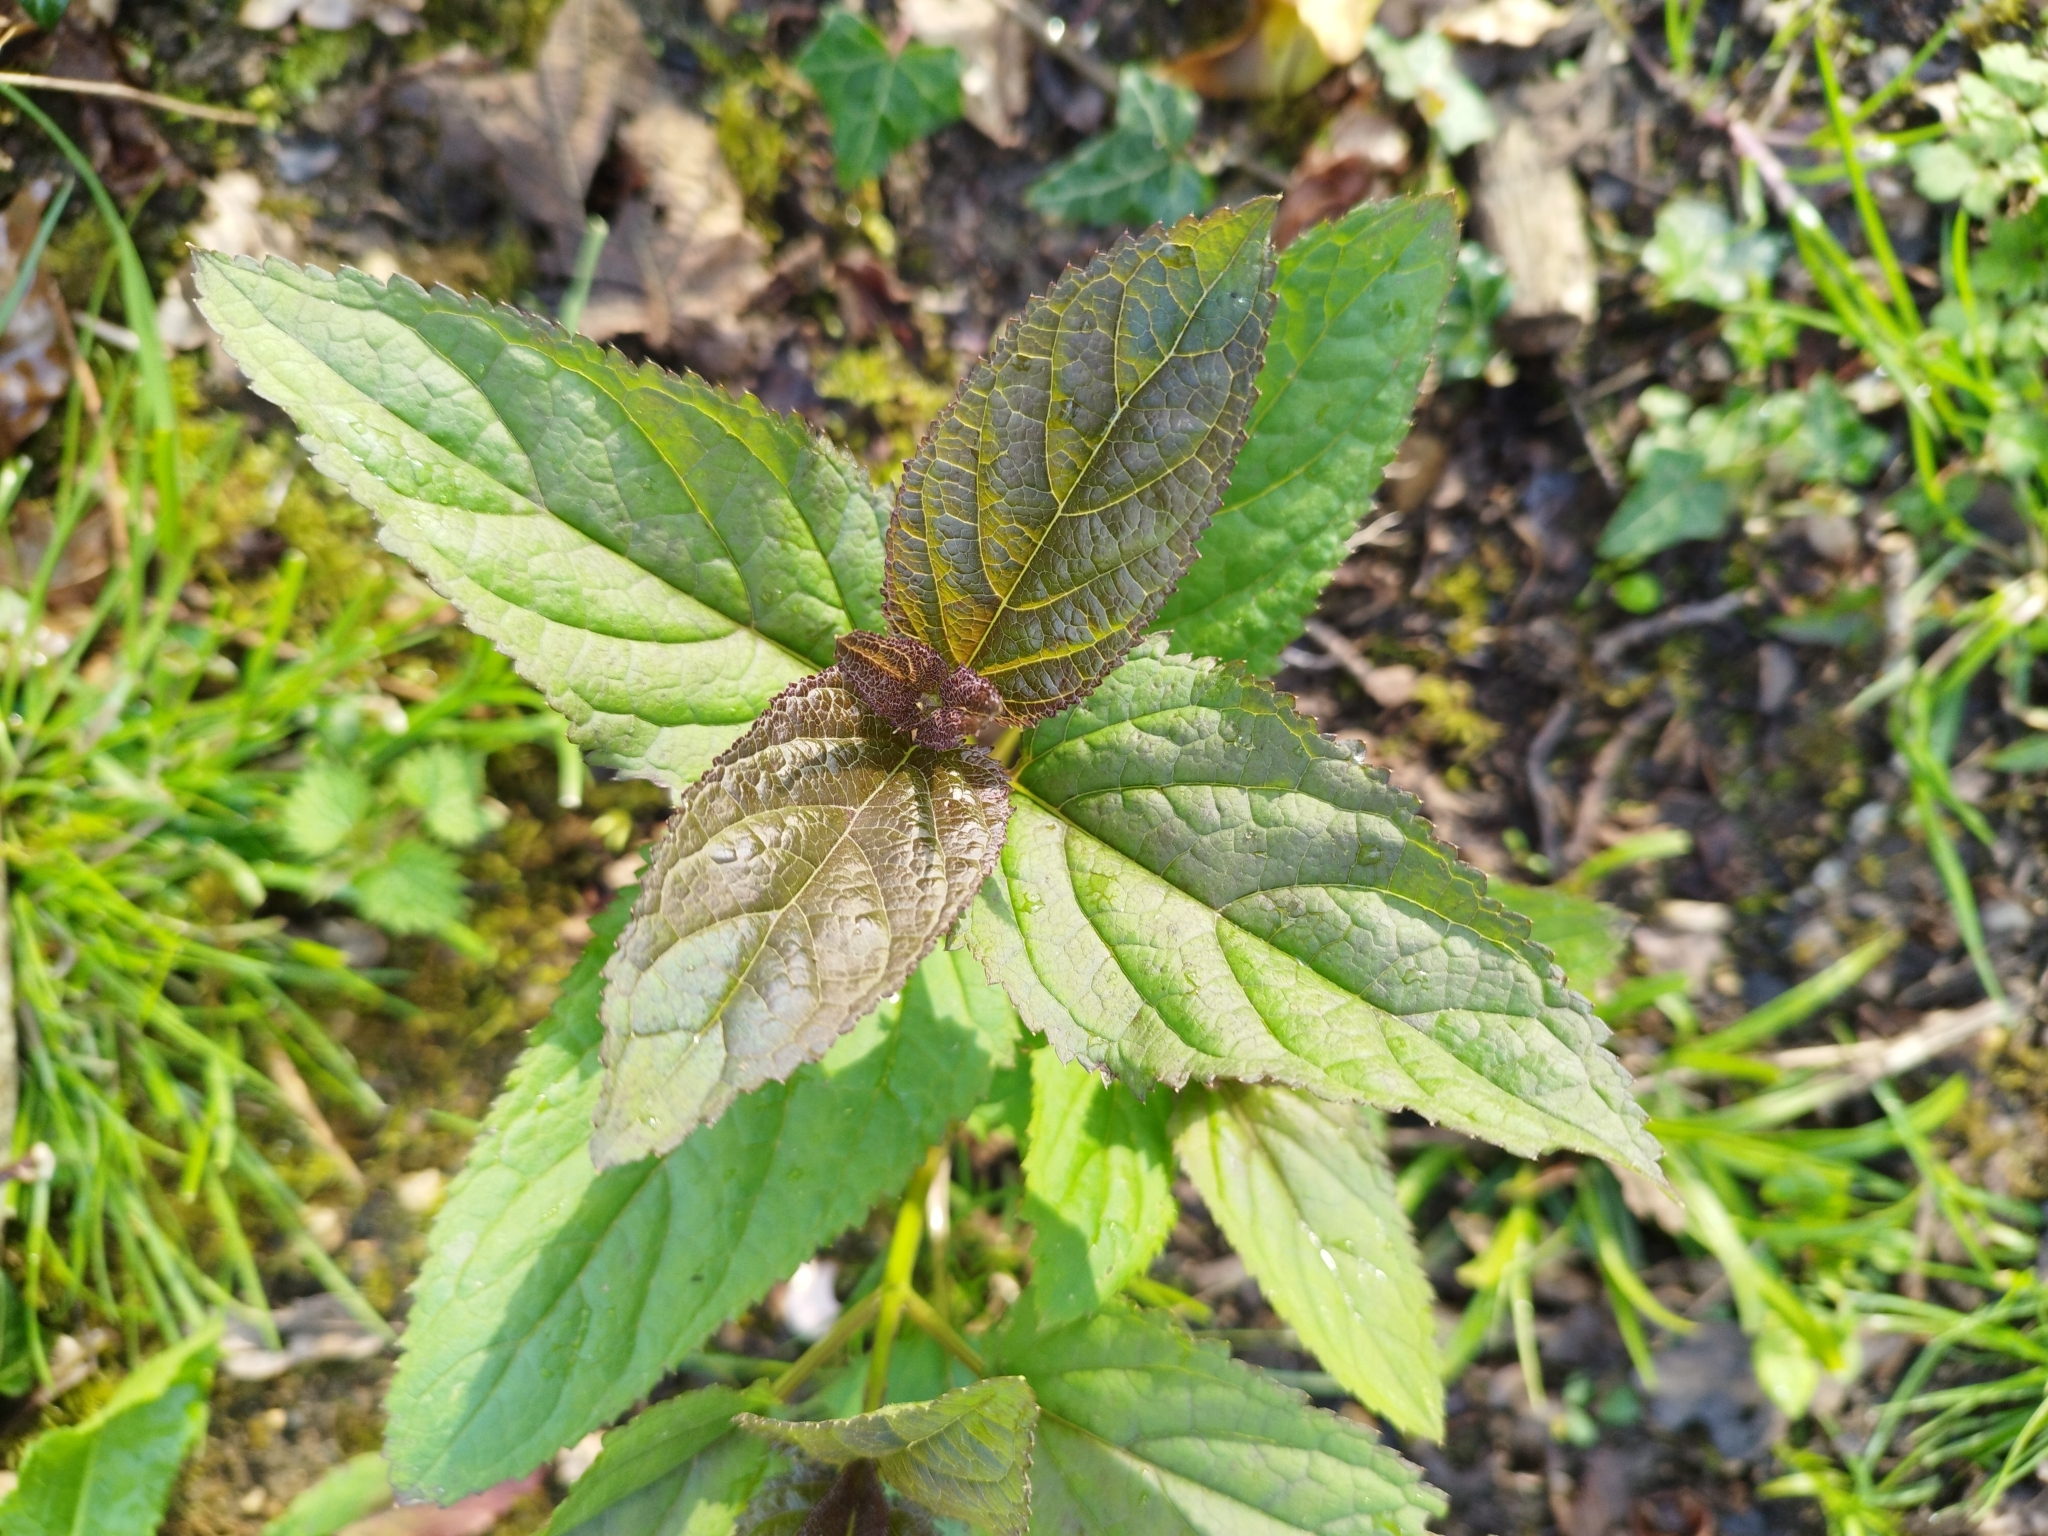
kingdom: Plantae
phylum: Tracheophyta
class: Magnoliopsida
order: Lamiales
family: Scrophulariaceae
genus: Scrophularia
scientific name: Scrophularia nodosa
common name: Common figwort
